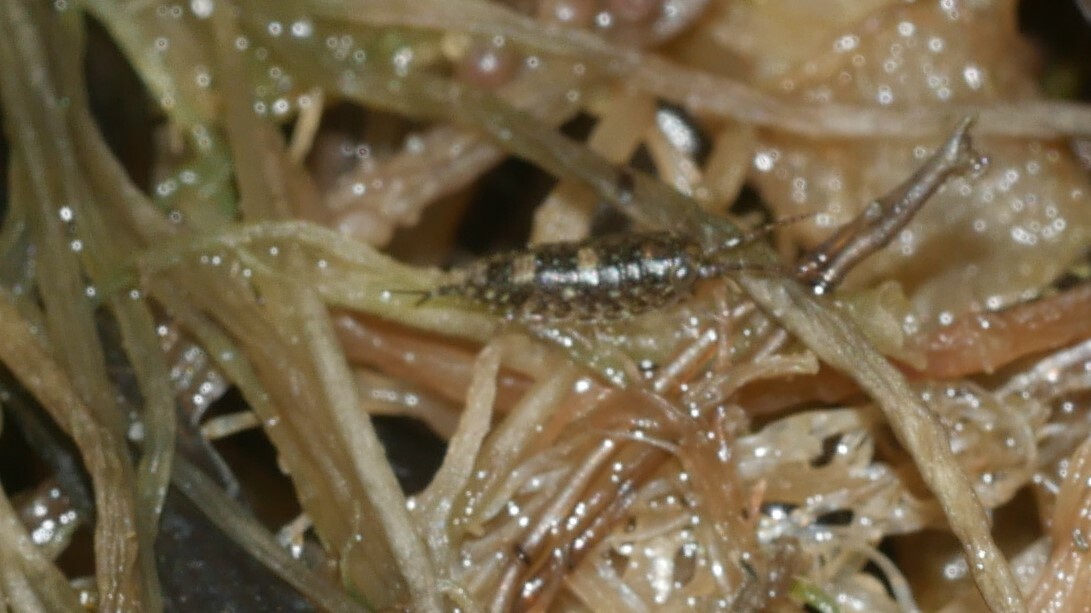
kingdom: Animalia
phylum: Arthropoda
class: Malacostraca
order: Isopoda
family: Ligiidae
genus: Ligia
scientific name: Ligia exotica
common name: Wharf roach
